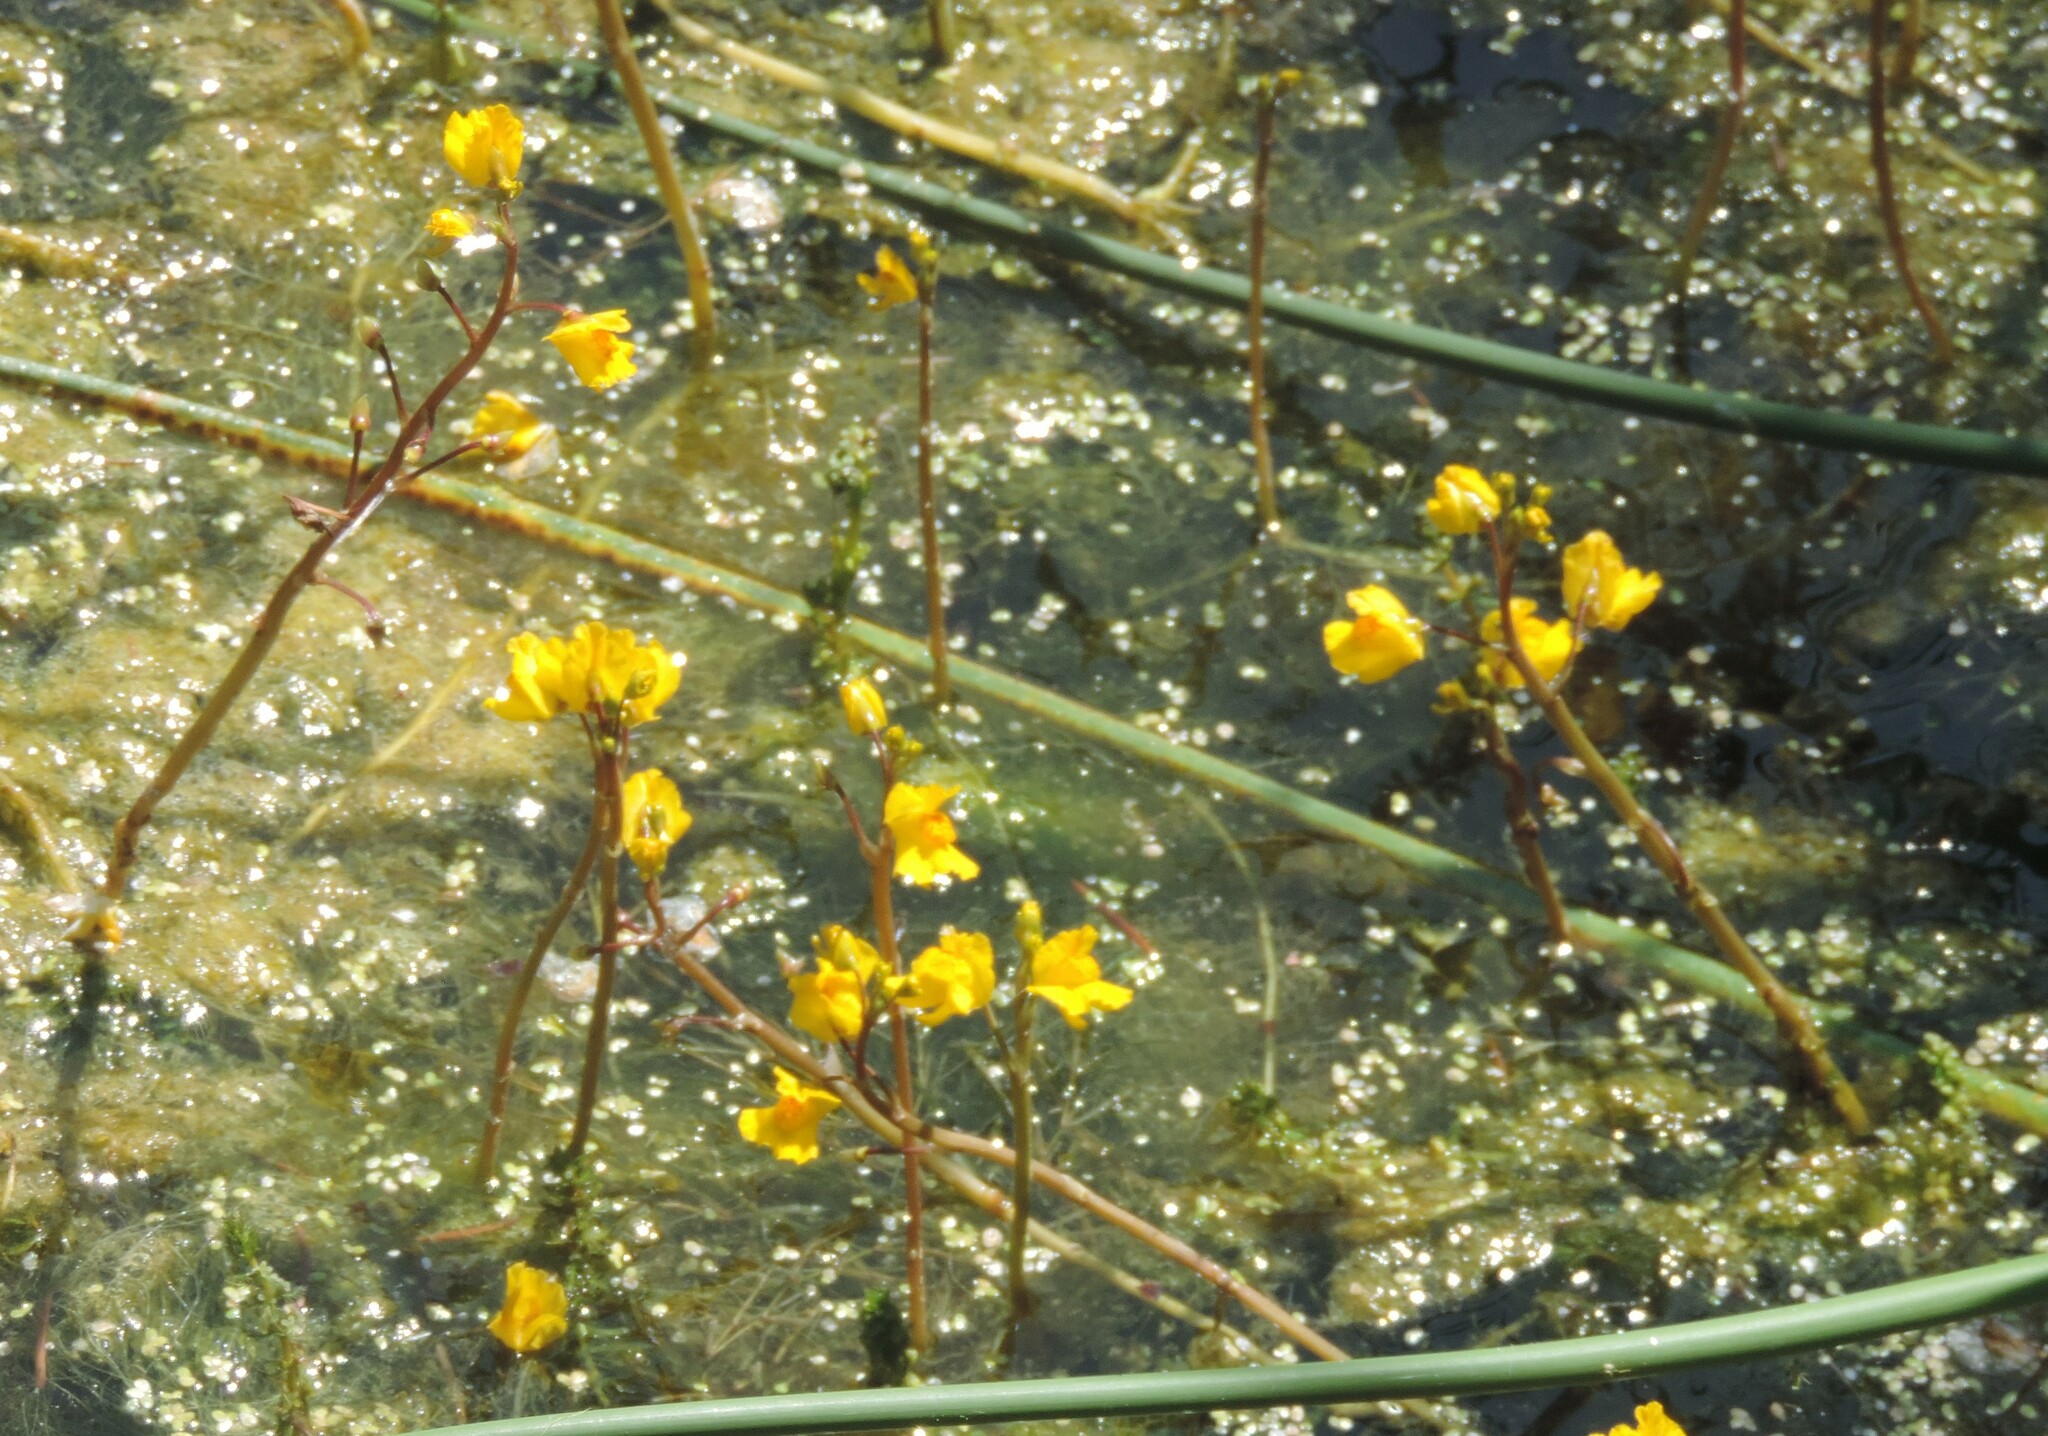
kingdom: Plantae
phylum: Tracheophyta
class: Magnoliopsida
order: Lamiales
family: Lentibulariaceae
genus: Utricularia
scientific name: Utricularia macrorhiza
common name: Common bladderwort
